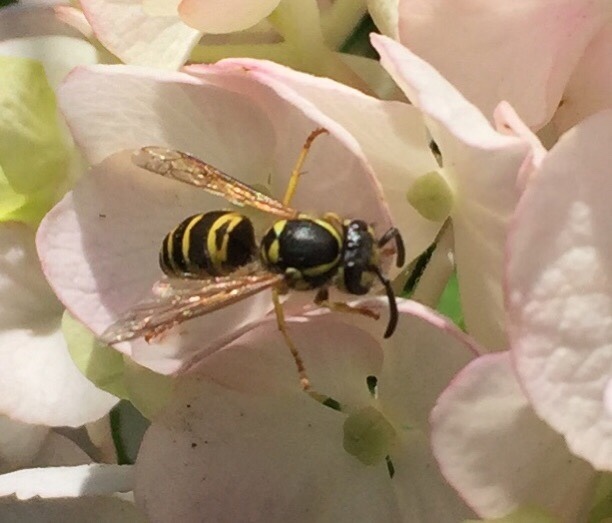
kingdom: Animalia
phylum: Arthropoda
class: Insecta
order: Hymenoptera
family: Vespidae
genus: Vespula
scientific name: Vespula maculifrons
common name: Eastern yellowjacket
